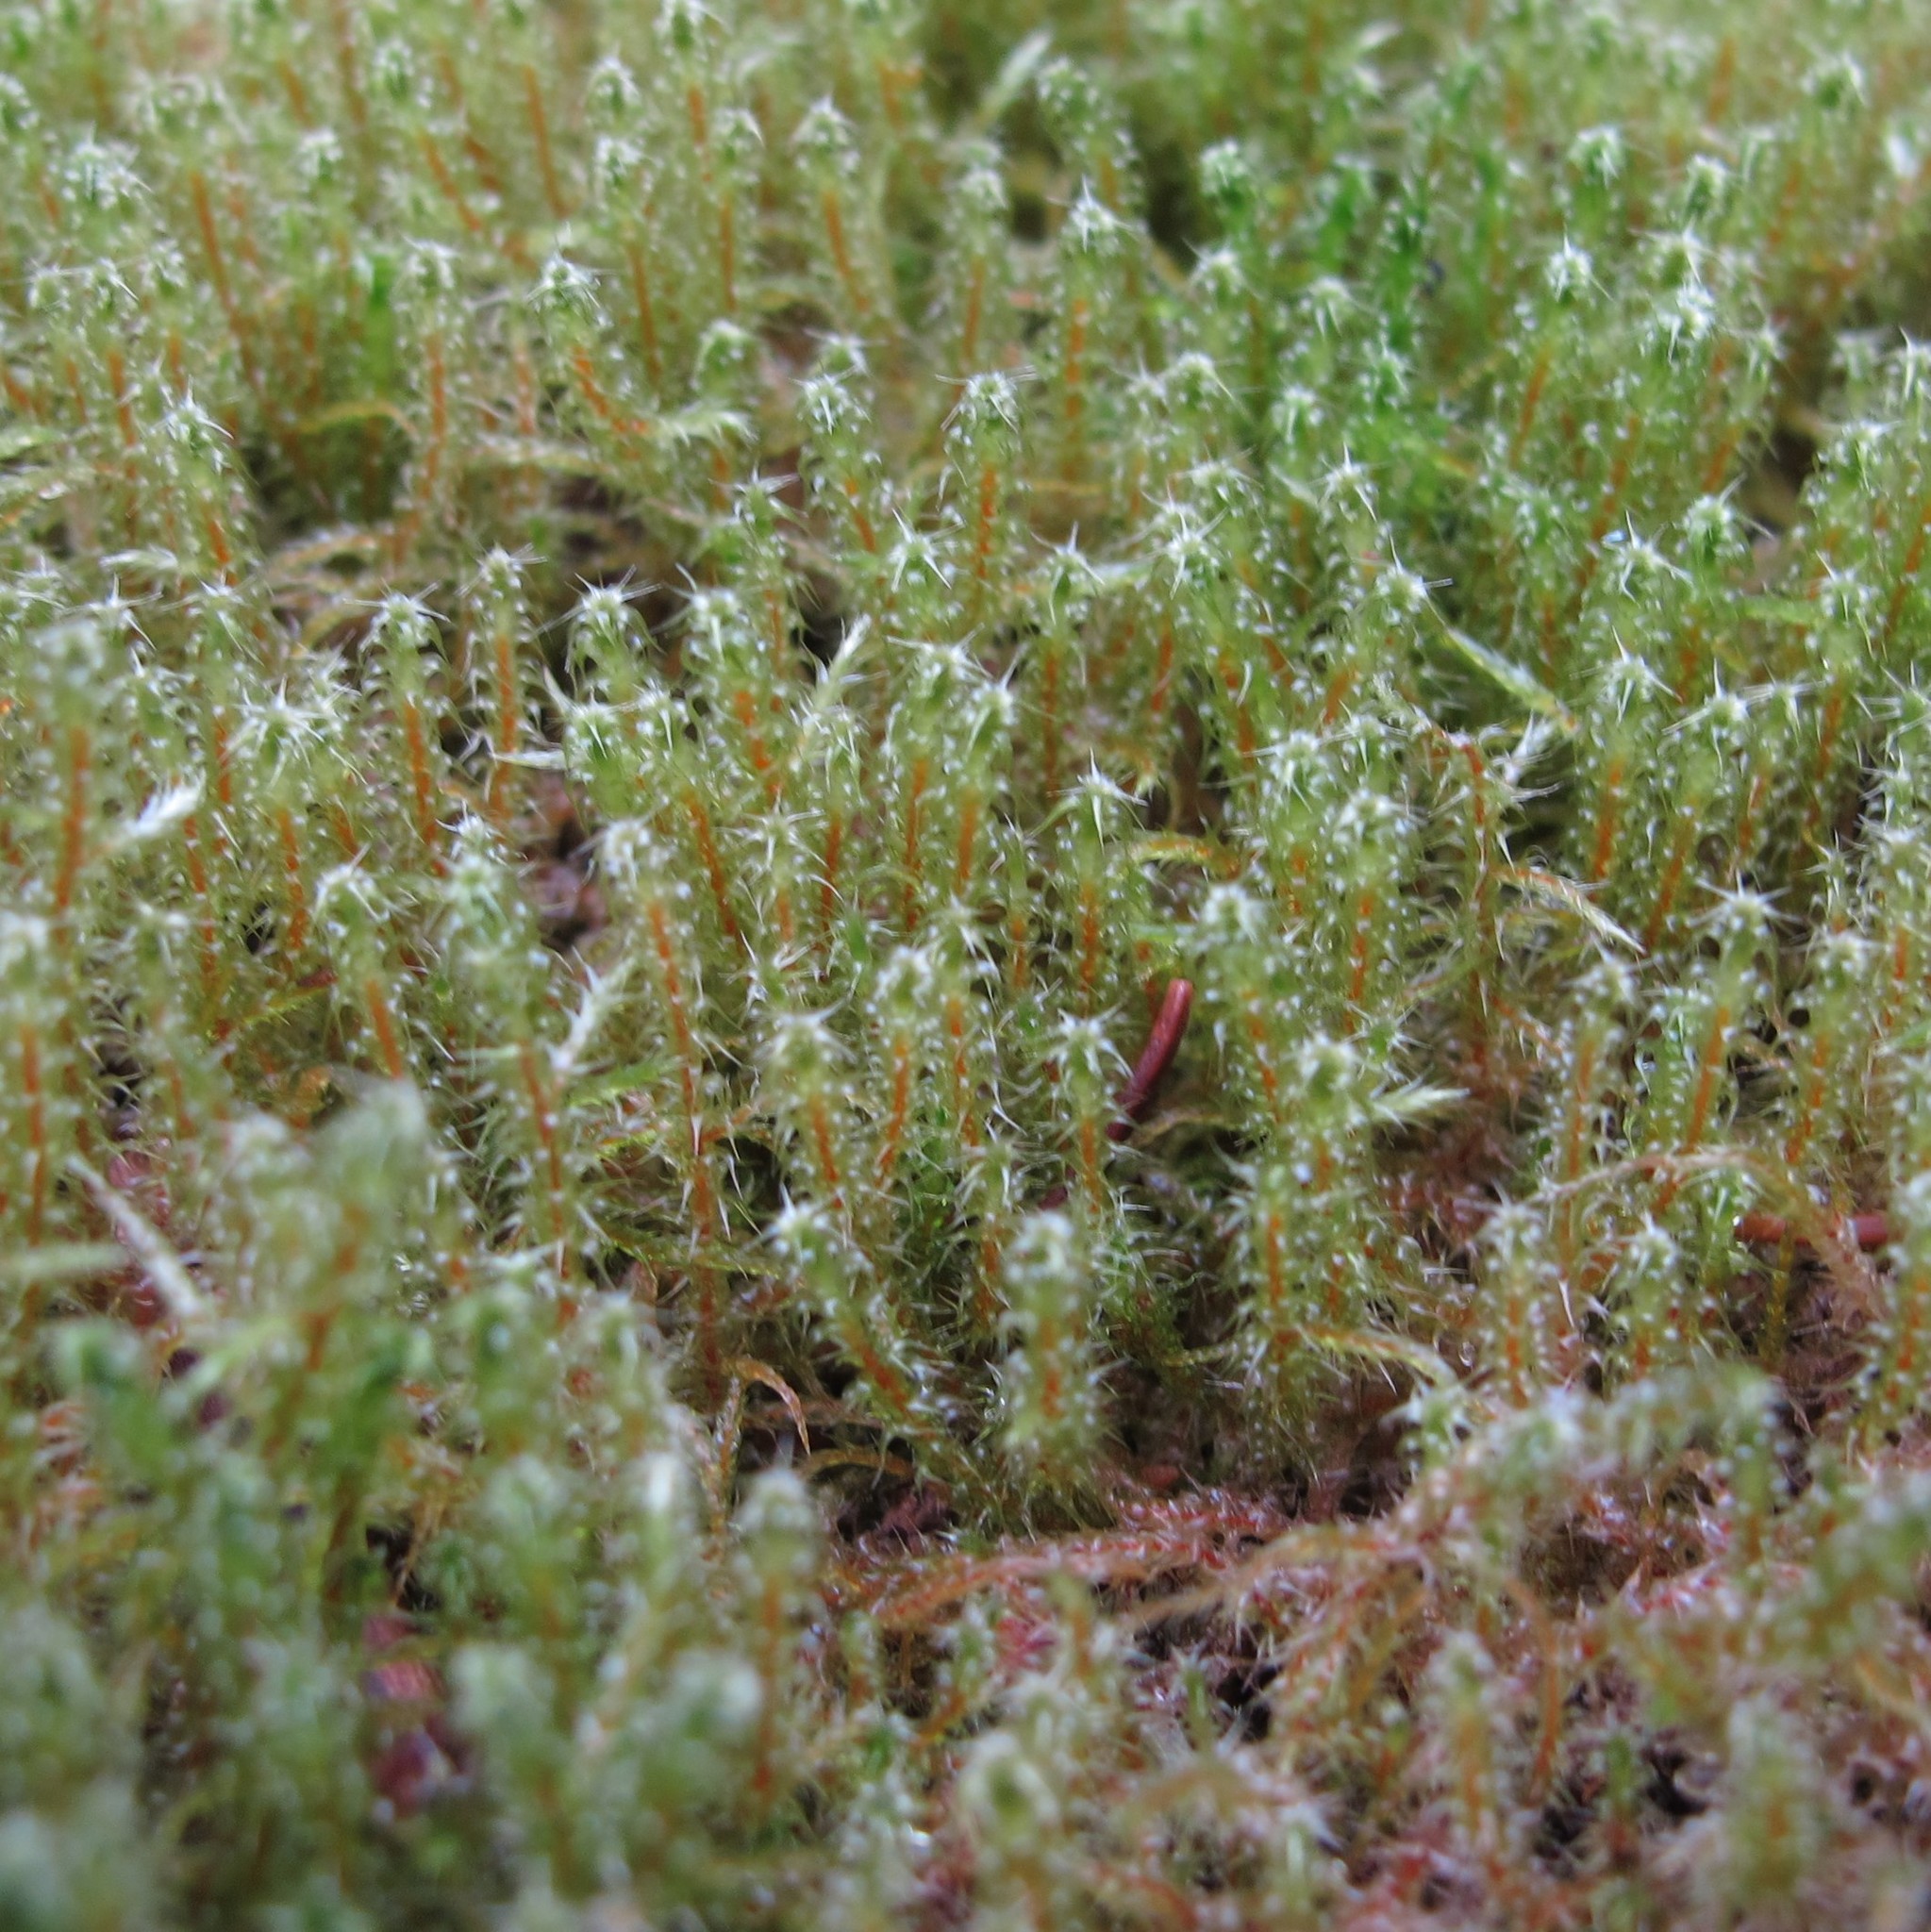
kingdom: Plantae
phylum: Bryophyta
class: Bryopsida
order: Hypnales
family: Hylocomiaceae
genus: Rhytidiadelphus
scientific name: Rhytidiadelphus squarrosus
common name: Springy turf-moss
